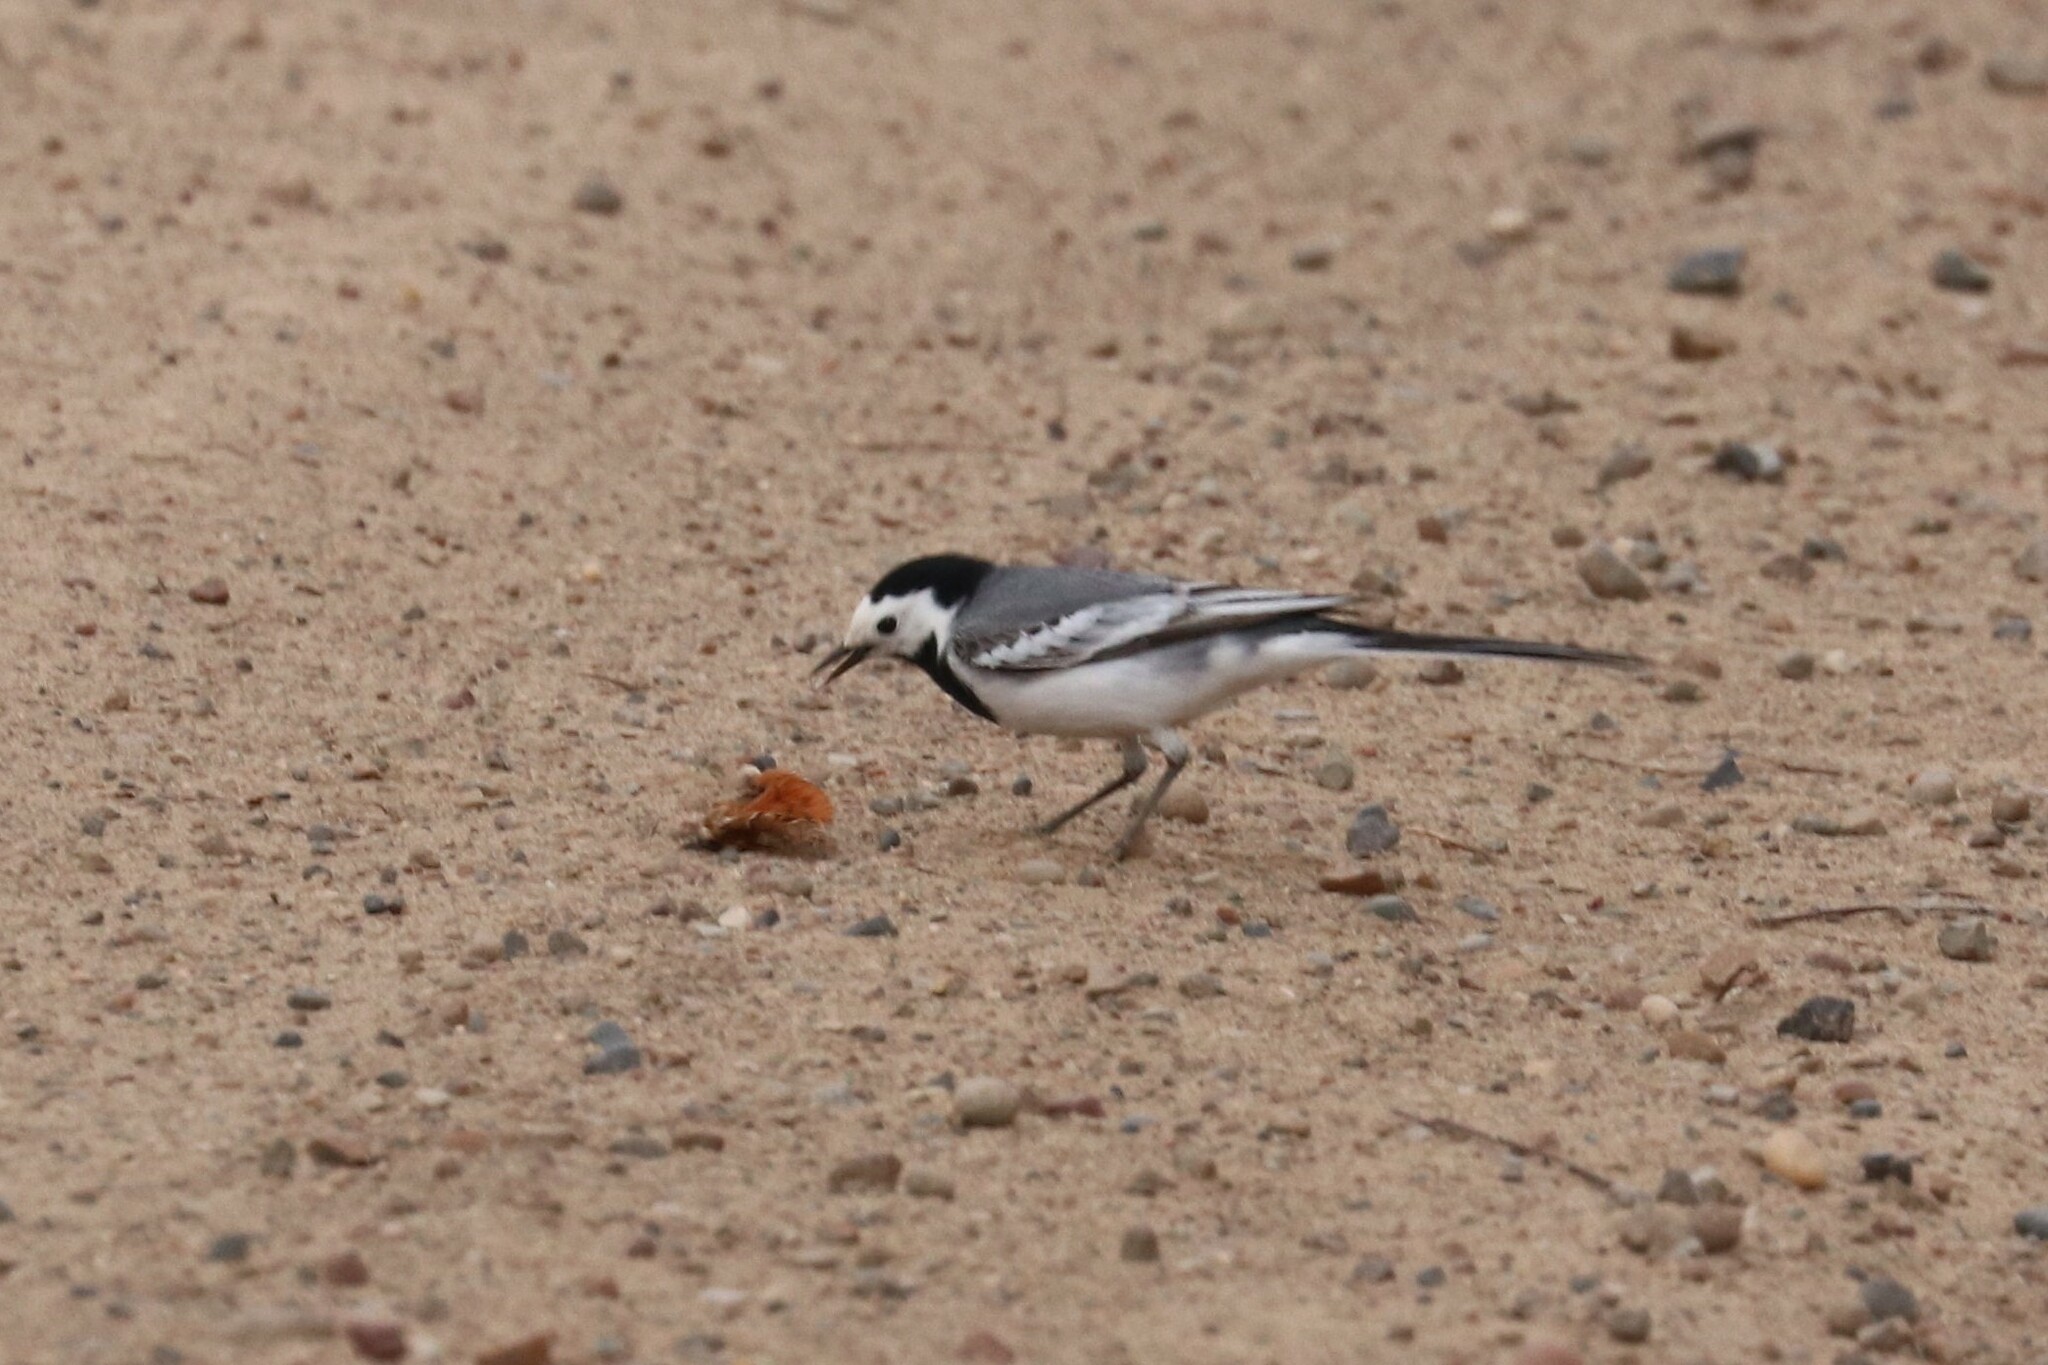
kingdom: Animalia
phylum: Chordata
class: Aves
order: Passeriformes
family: Motacillidae
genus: Motacilla
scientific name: Motacilla alba
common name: White wagtail
